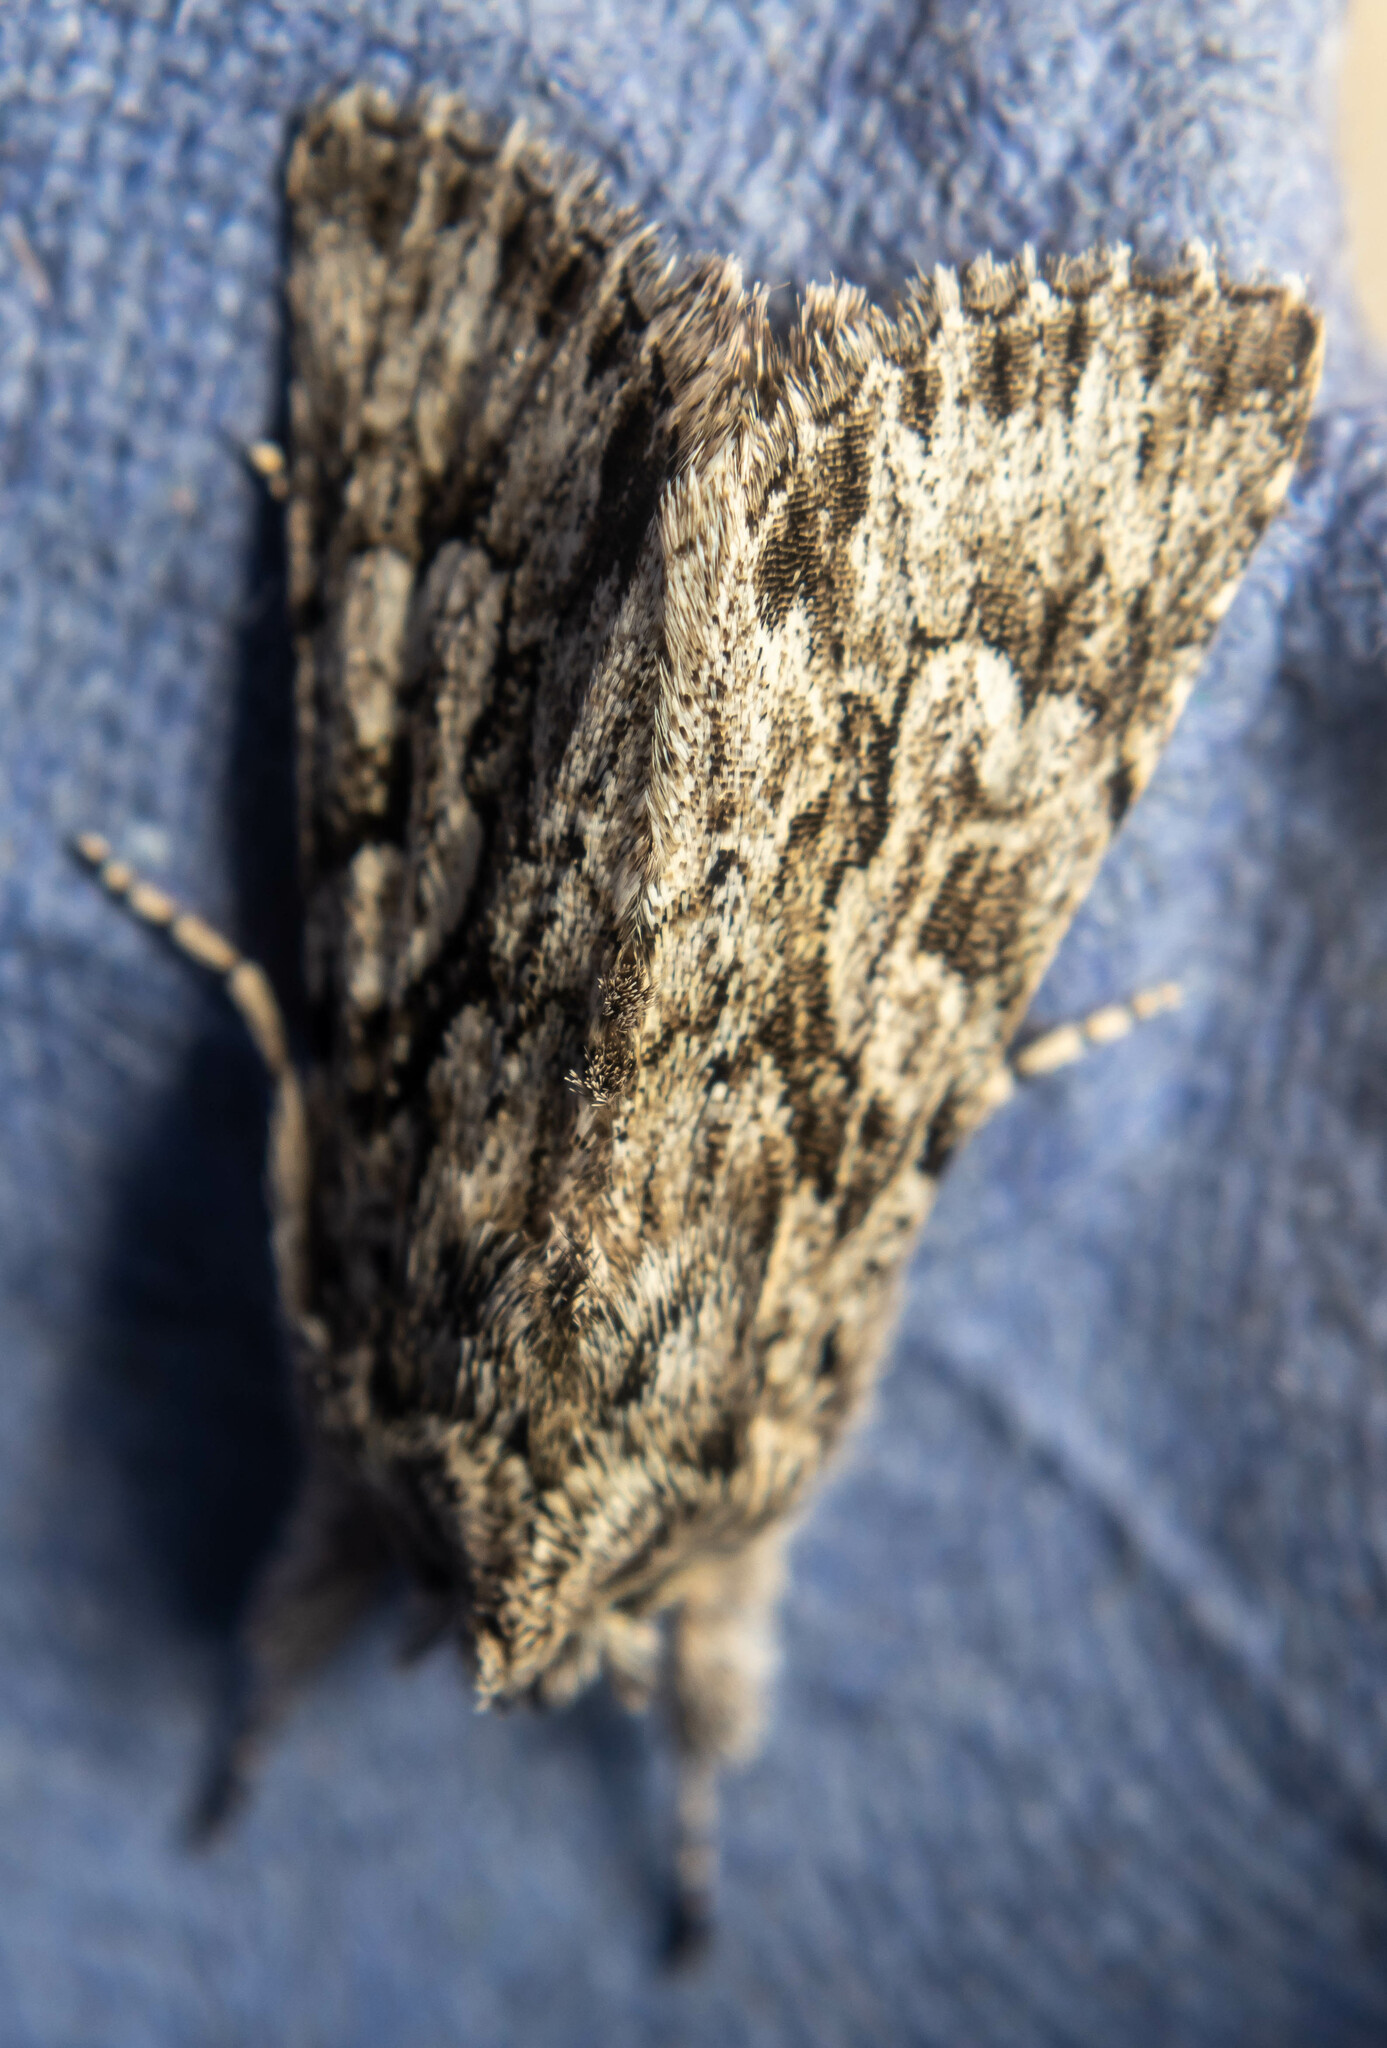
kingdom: Animalia
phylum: Arthropoda
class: Insecta
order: Lepidoptera
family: Noctuidae
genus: Xylocampa
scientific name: Xylocampa areola
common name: Early grey
